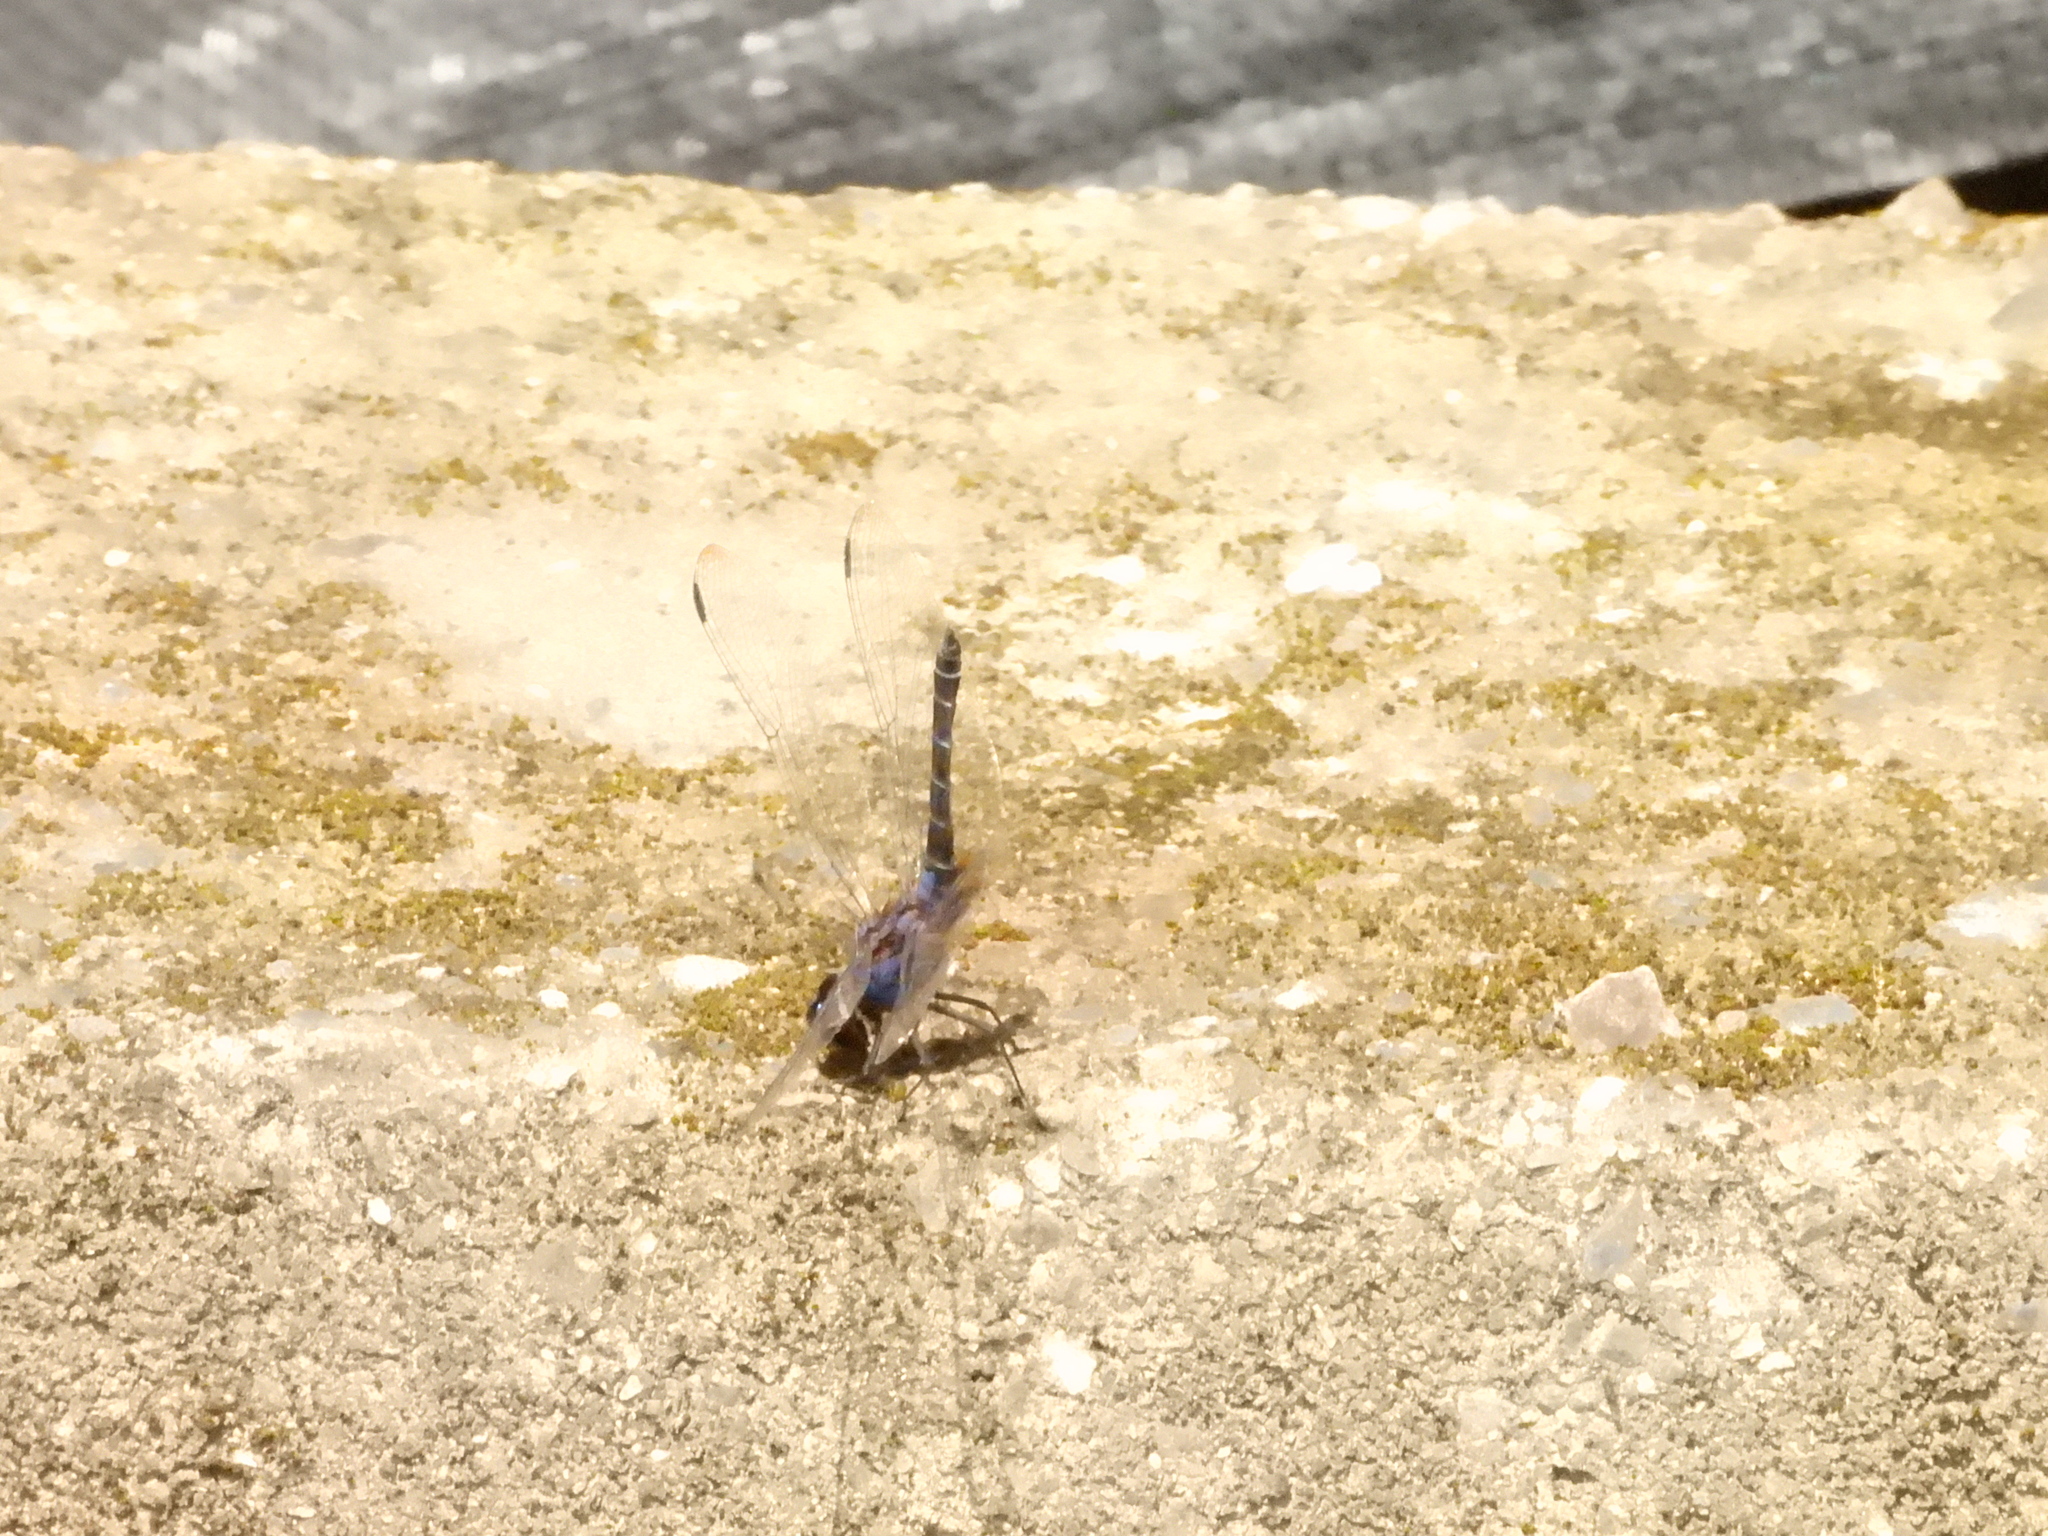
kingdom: Animalia
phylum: Arthropoda
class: Insecta
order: Odonata
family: Libellulidae
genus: Trithemis
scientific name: Trithemis festiva
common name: Indigo dropwing
